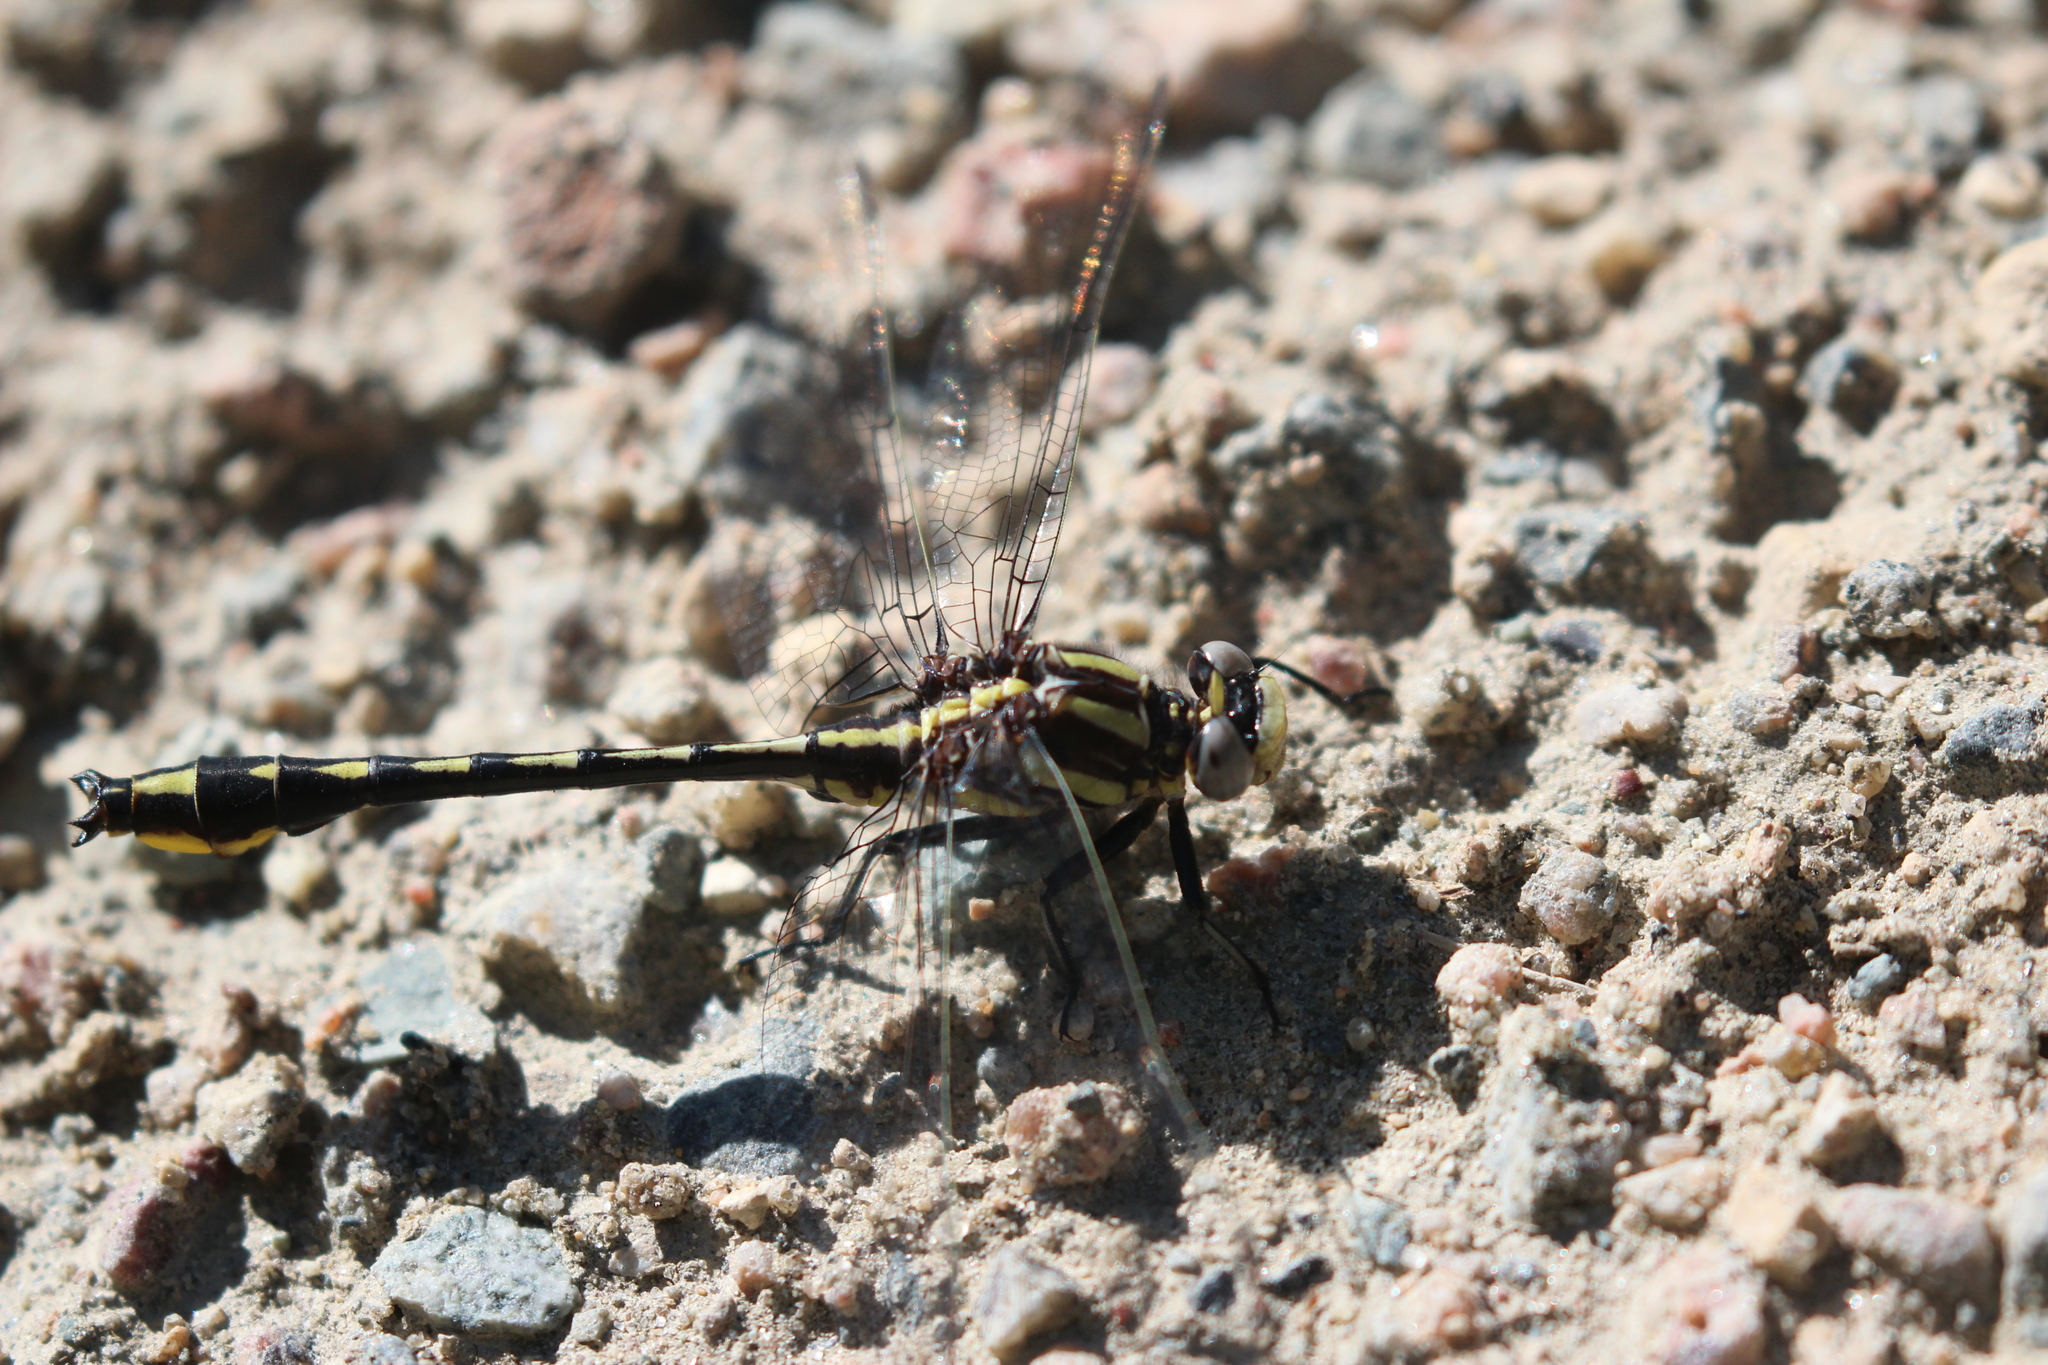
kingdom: Animalia
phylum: Arthropoda
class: Insecta
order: Odonata
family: Gomphidae
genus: Phanogomphus
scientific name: Phanogomphus graslinellus
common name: Pronghorn clubtail
